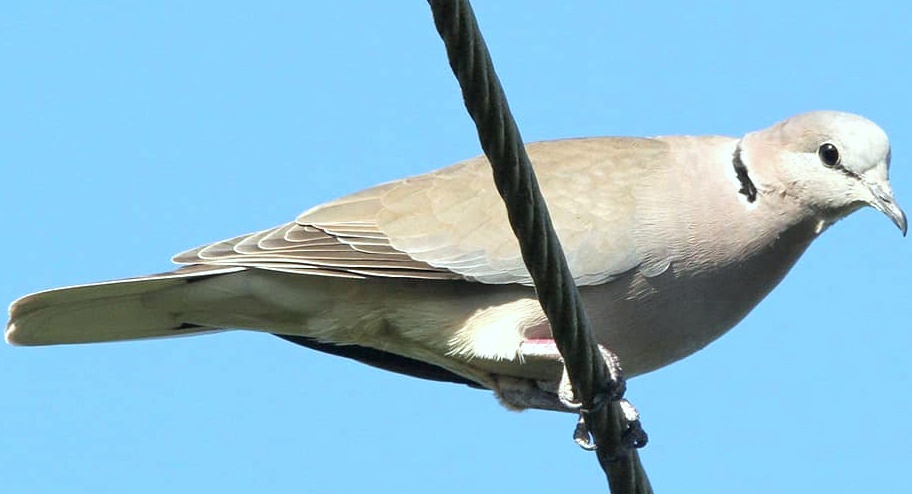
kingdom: Animalia
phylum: Chordata
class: Aves
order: Columbiformes
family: Columbidae
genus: Streptopelia
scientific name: Streptopelia capicola
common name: Ring-necked dove
